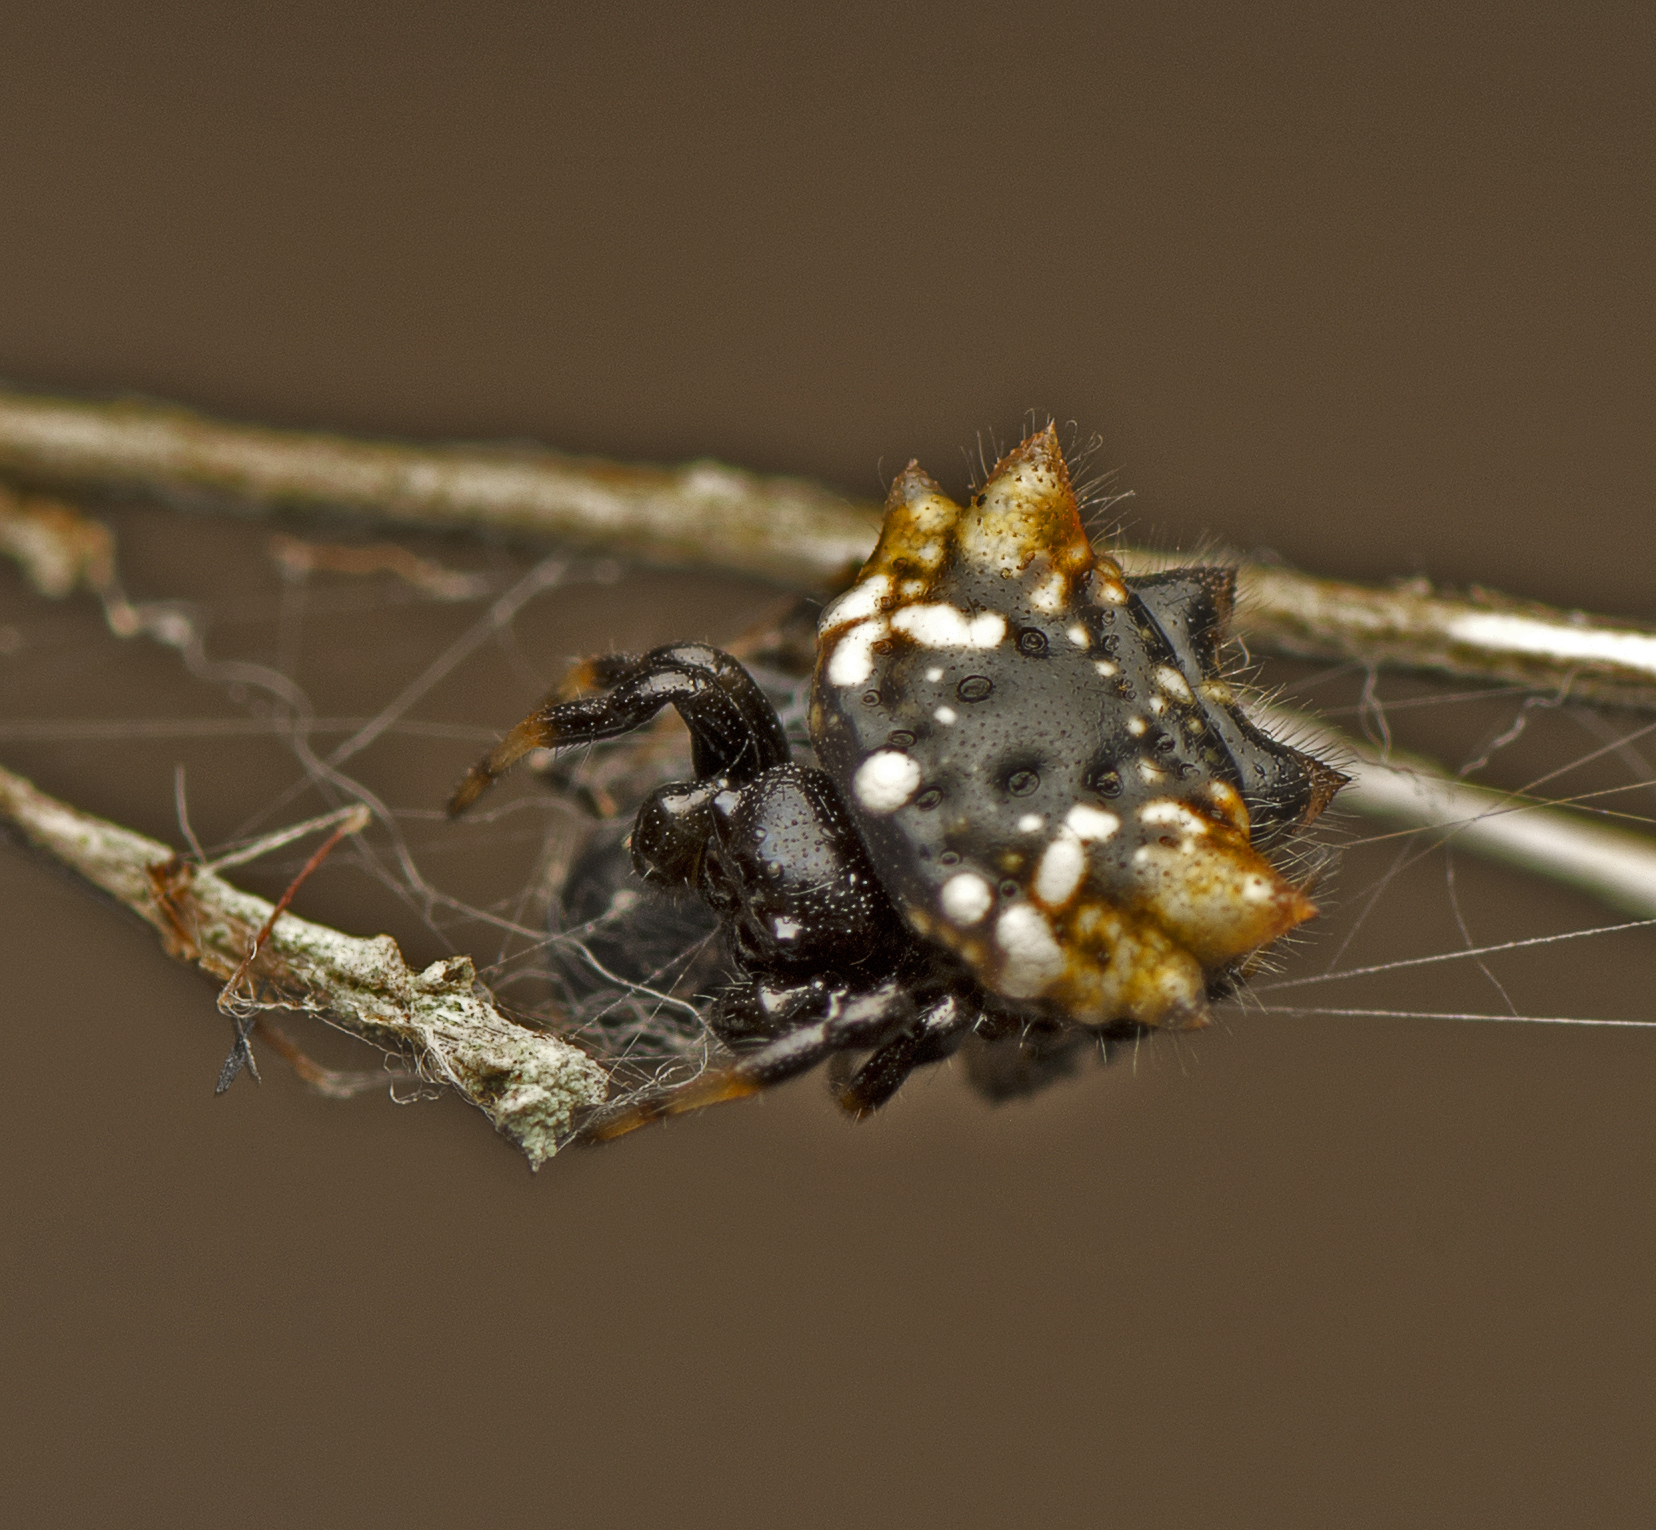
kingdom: Animalia
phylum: Arthropoda
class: Arachnida
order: Araneae
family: Araneidae
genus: Austracantha
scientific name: Austracantha minax
